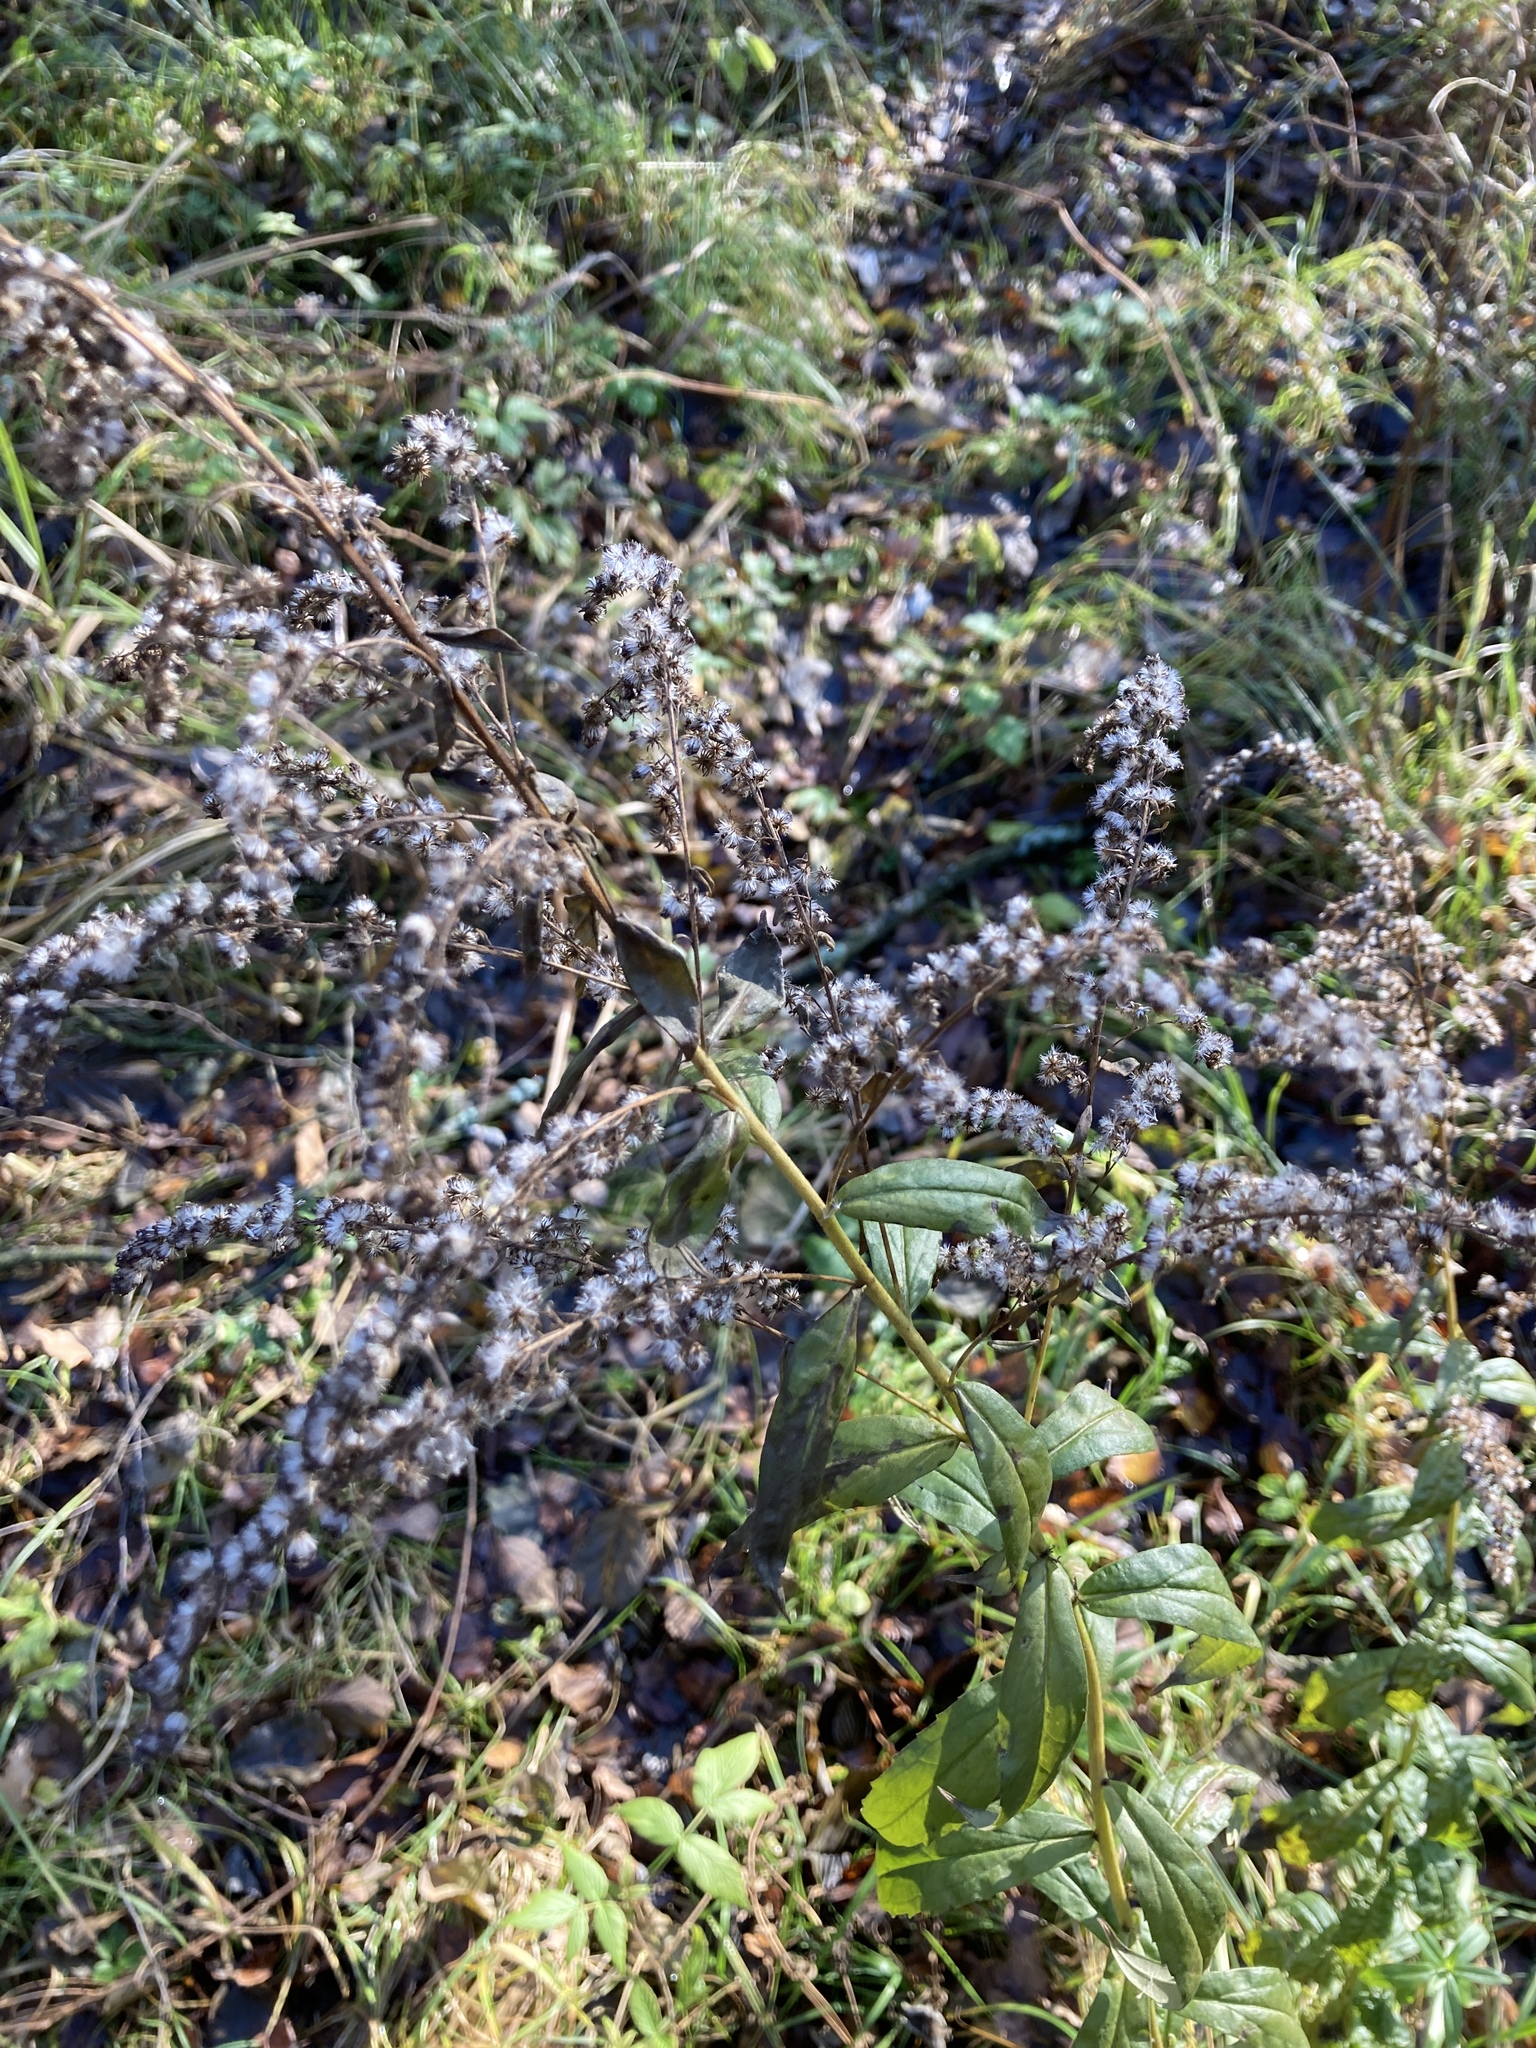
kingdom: Plantae
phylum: Tracheophyta
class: Magnoliopsida
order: Asterales
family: Asteraceae
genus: Solidago
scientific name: Solidago canadensis
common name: Canada goldenrod
